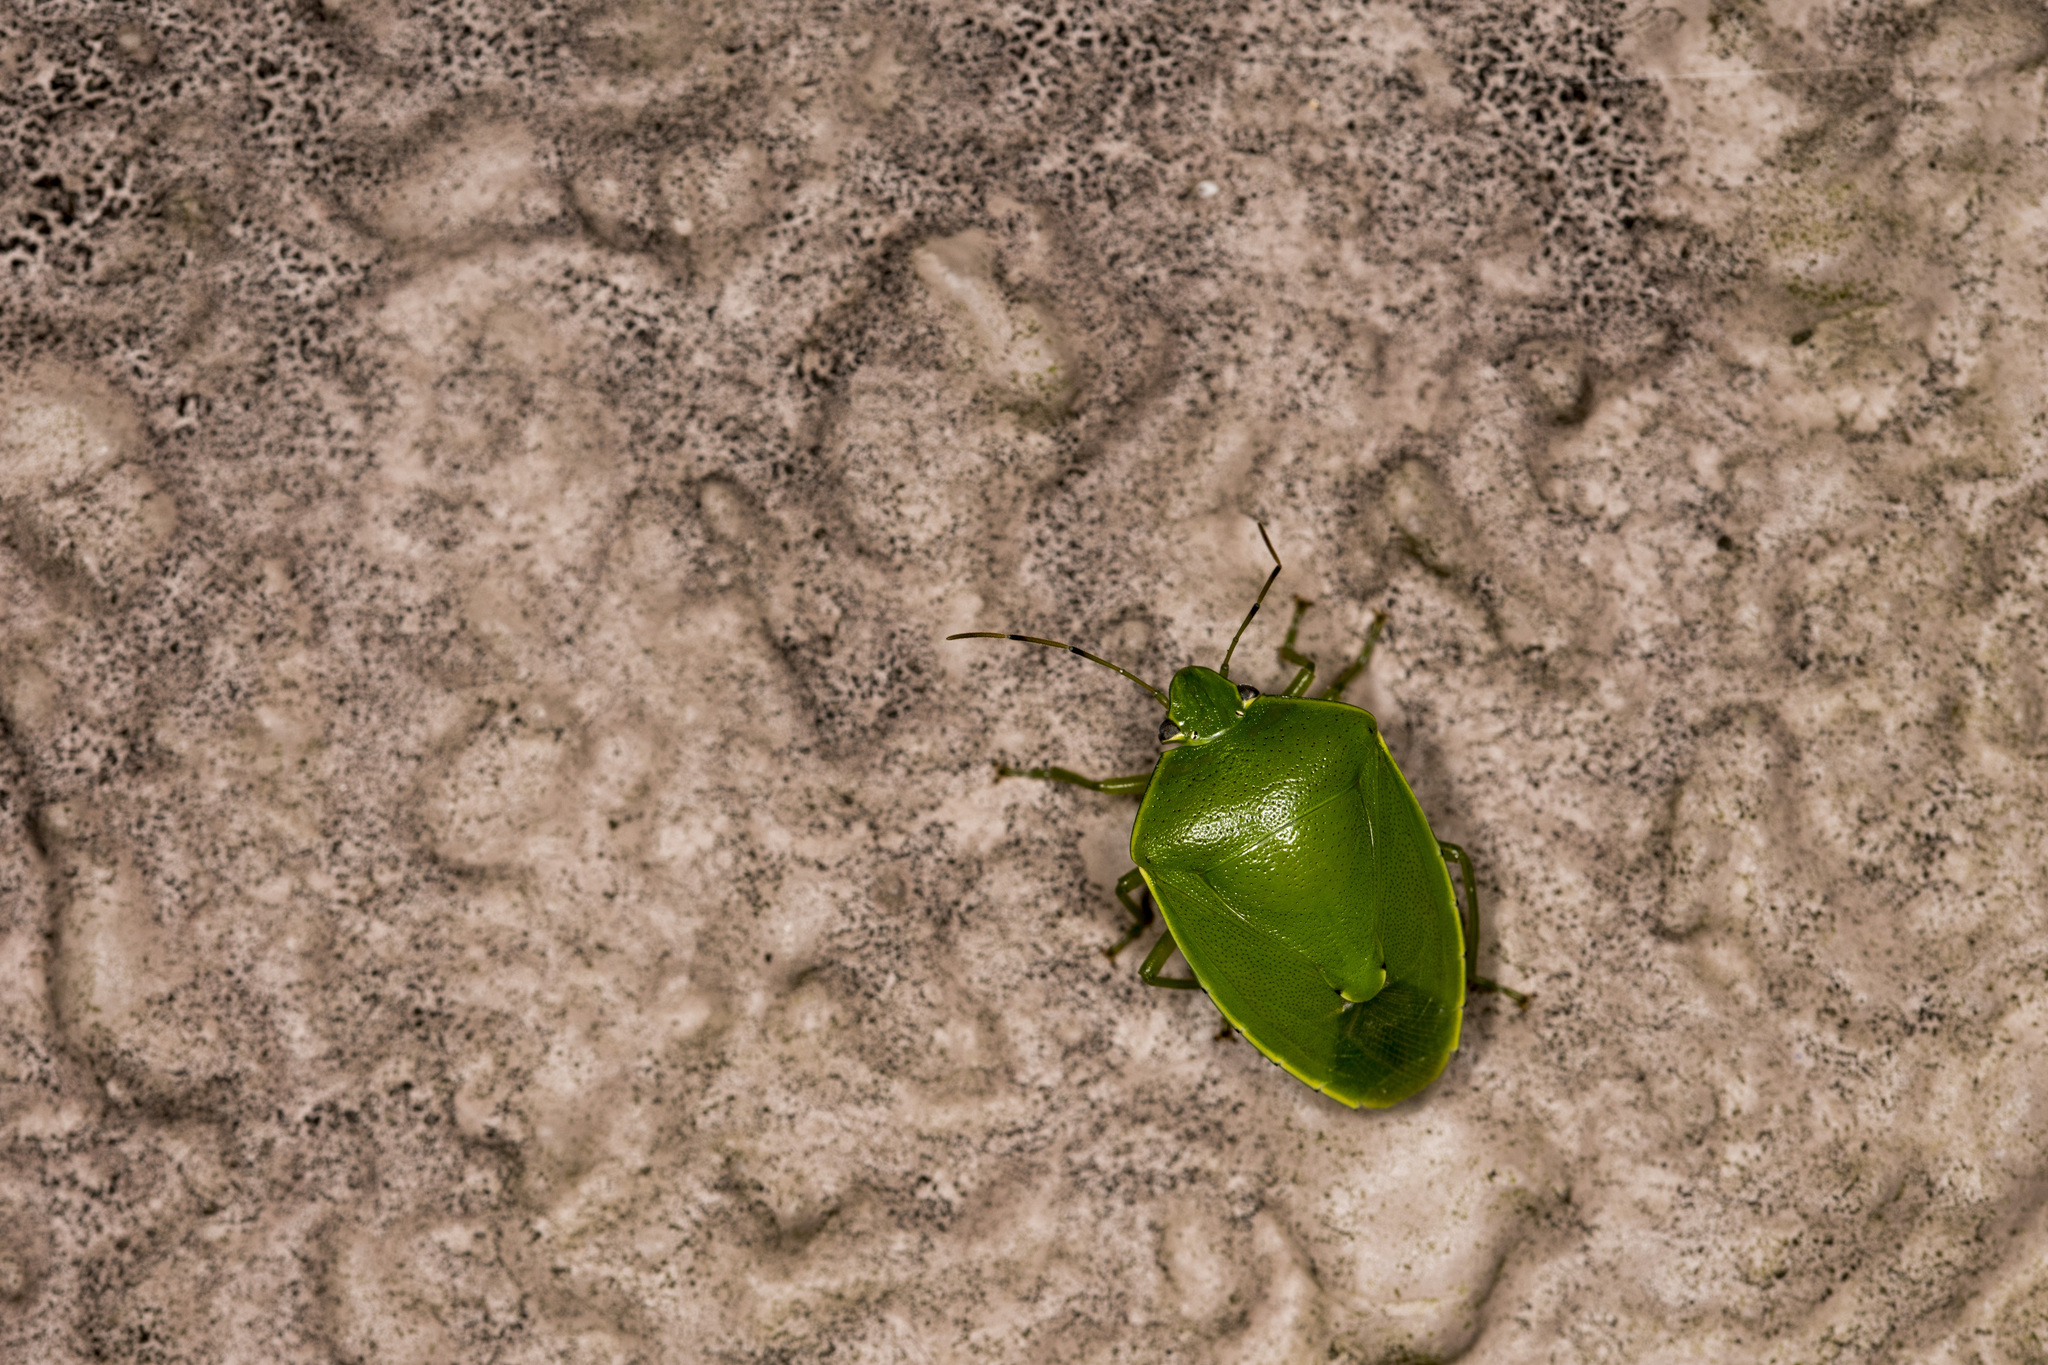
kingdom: Animalia
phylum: Arthropoda
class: Insecta
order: Hemiptera
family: Pentatomidae
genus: Glaucias
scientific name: Glaucias subpunctatus
